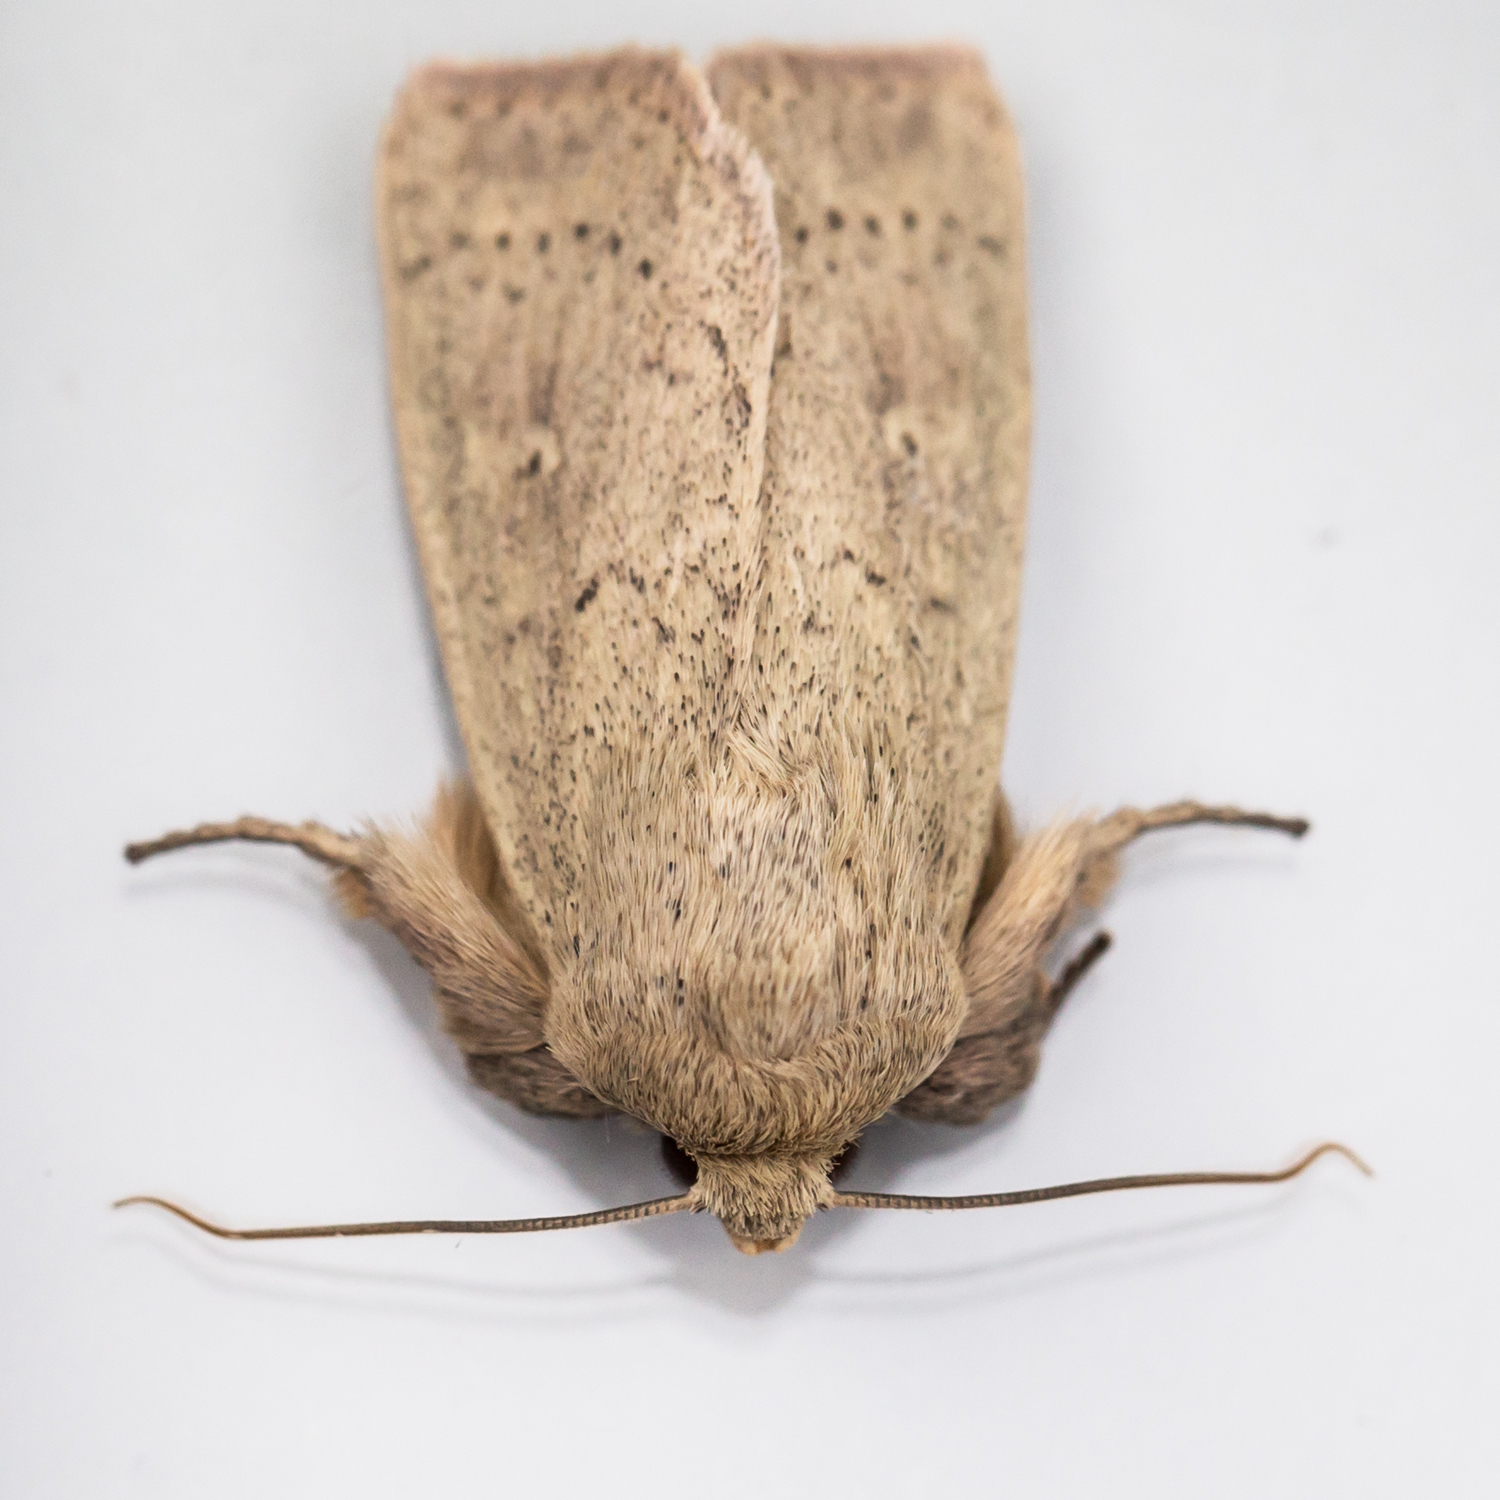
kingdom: Animalia
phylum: Arthropoda
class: Insecta
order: Lepidoptera
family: Noctuidae
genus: Leucania
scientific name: Leucania ursula
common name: Ursula wainscot
